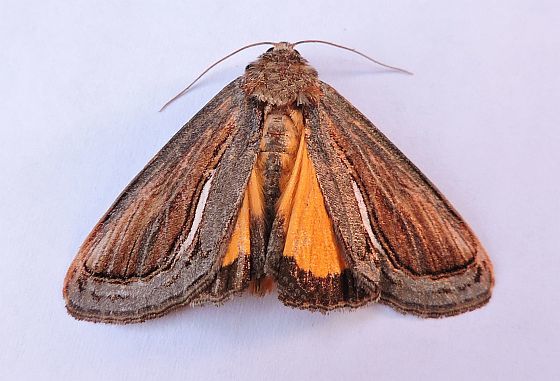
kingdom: Animalia
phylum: Arthropoda
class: Insecta
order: Lepidoptera
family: Noctuidae
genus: Gerrodes
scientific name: Gerrodes minatea
